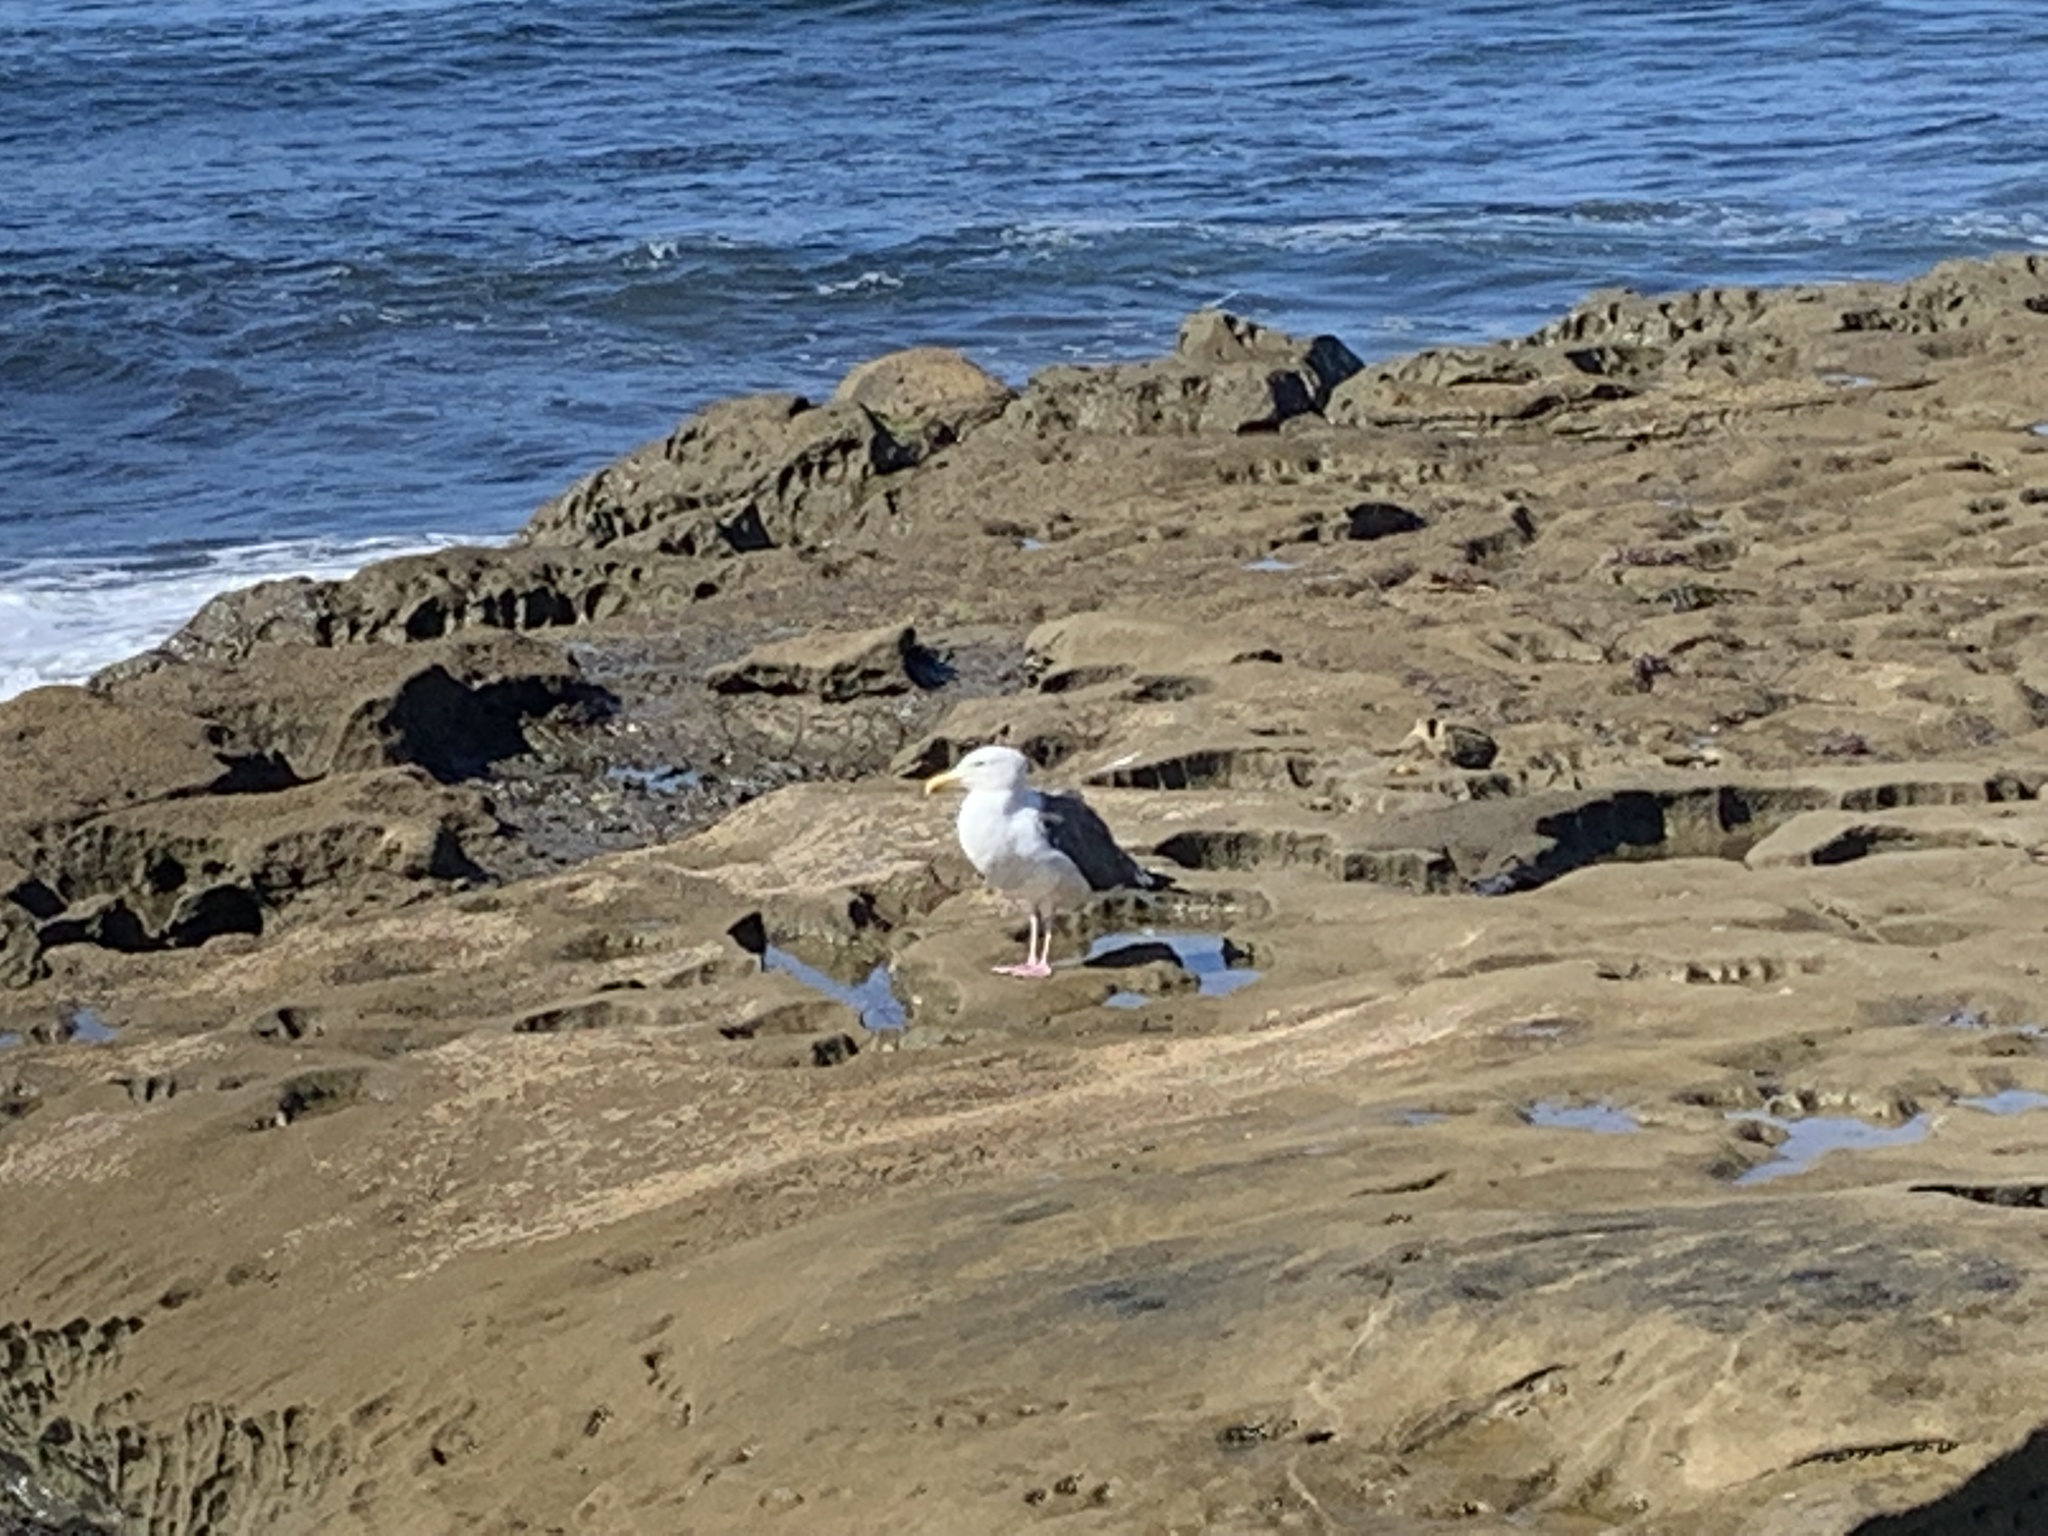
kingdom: Animalia
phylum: Chordata
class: Aves
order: Charadriiformes
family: Laridae
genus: Larus
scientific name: Larus occidentalis
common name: Western gull
